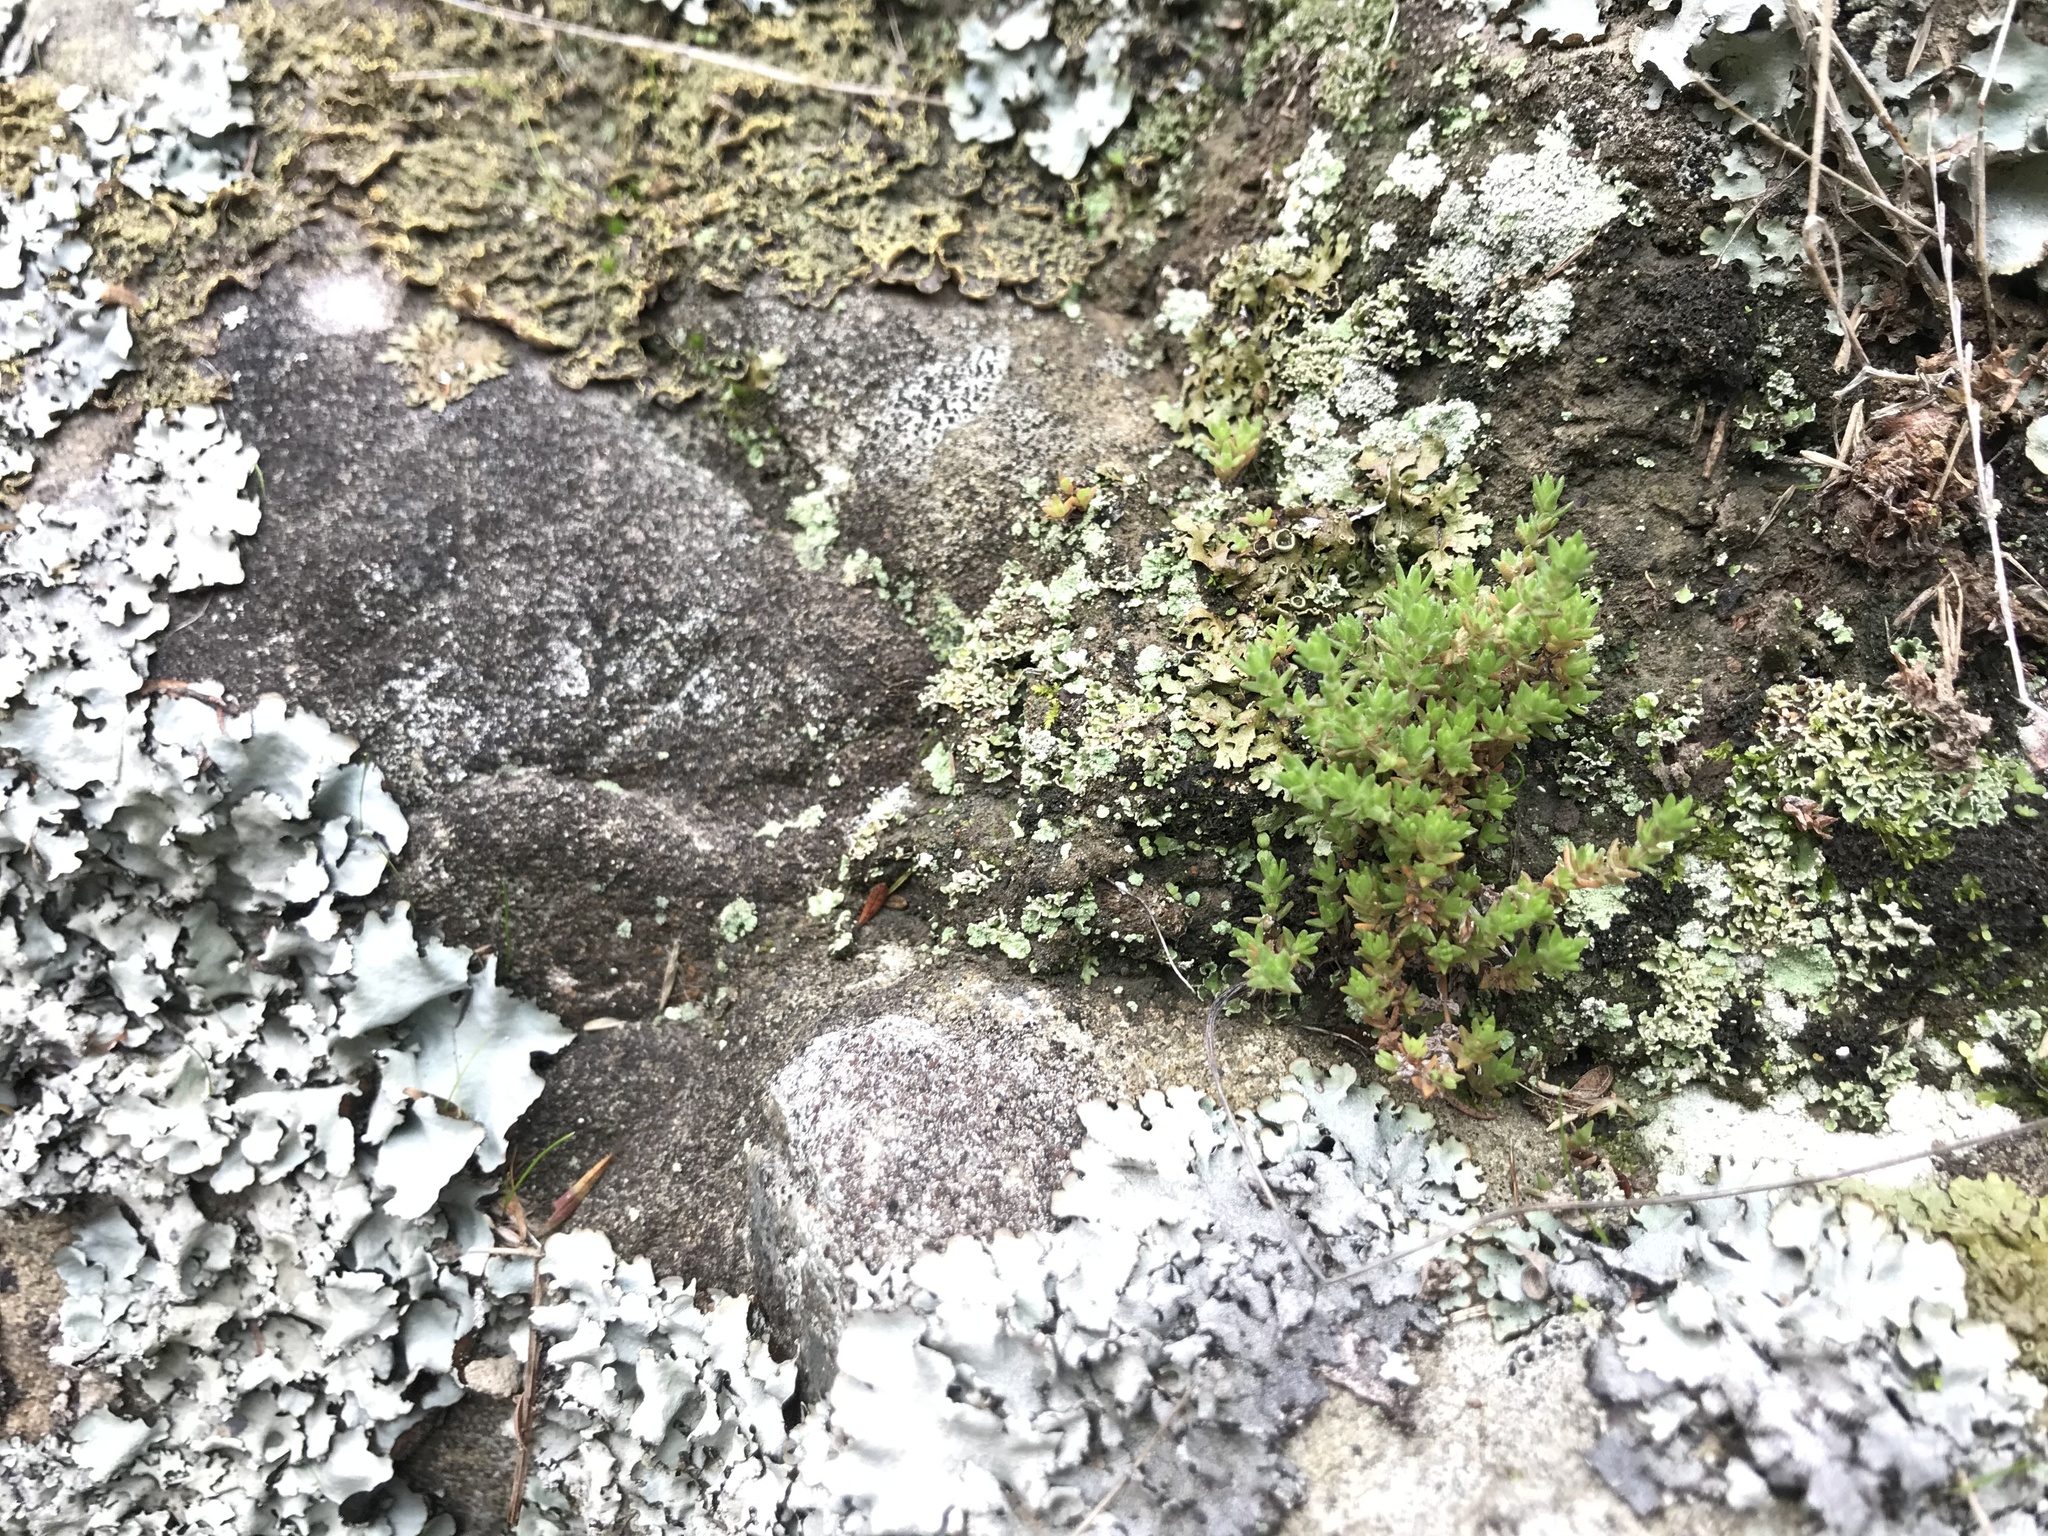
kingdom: Plantae
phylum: Tracheophyta
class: Magnoliopsida
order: Saxifragales
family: Crassulaceae
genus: Crassula
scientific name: Crassula mataikona
